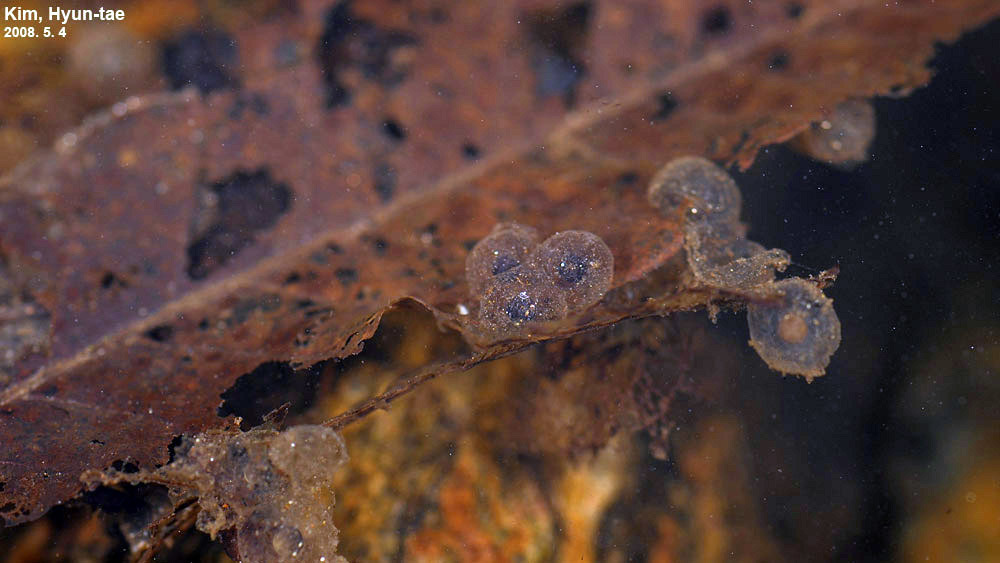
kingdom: Animalia
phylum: Chordata
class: Amphibia
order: Anura
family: Bombinatoridae
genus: Bombina
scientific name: Bombina orientalis
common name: Oriental firebelly toad
